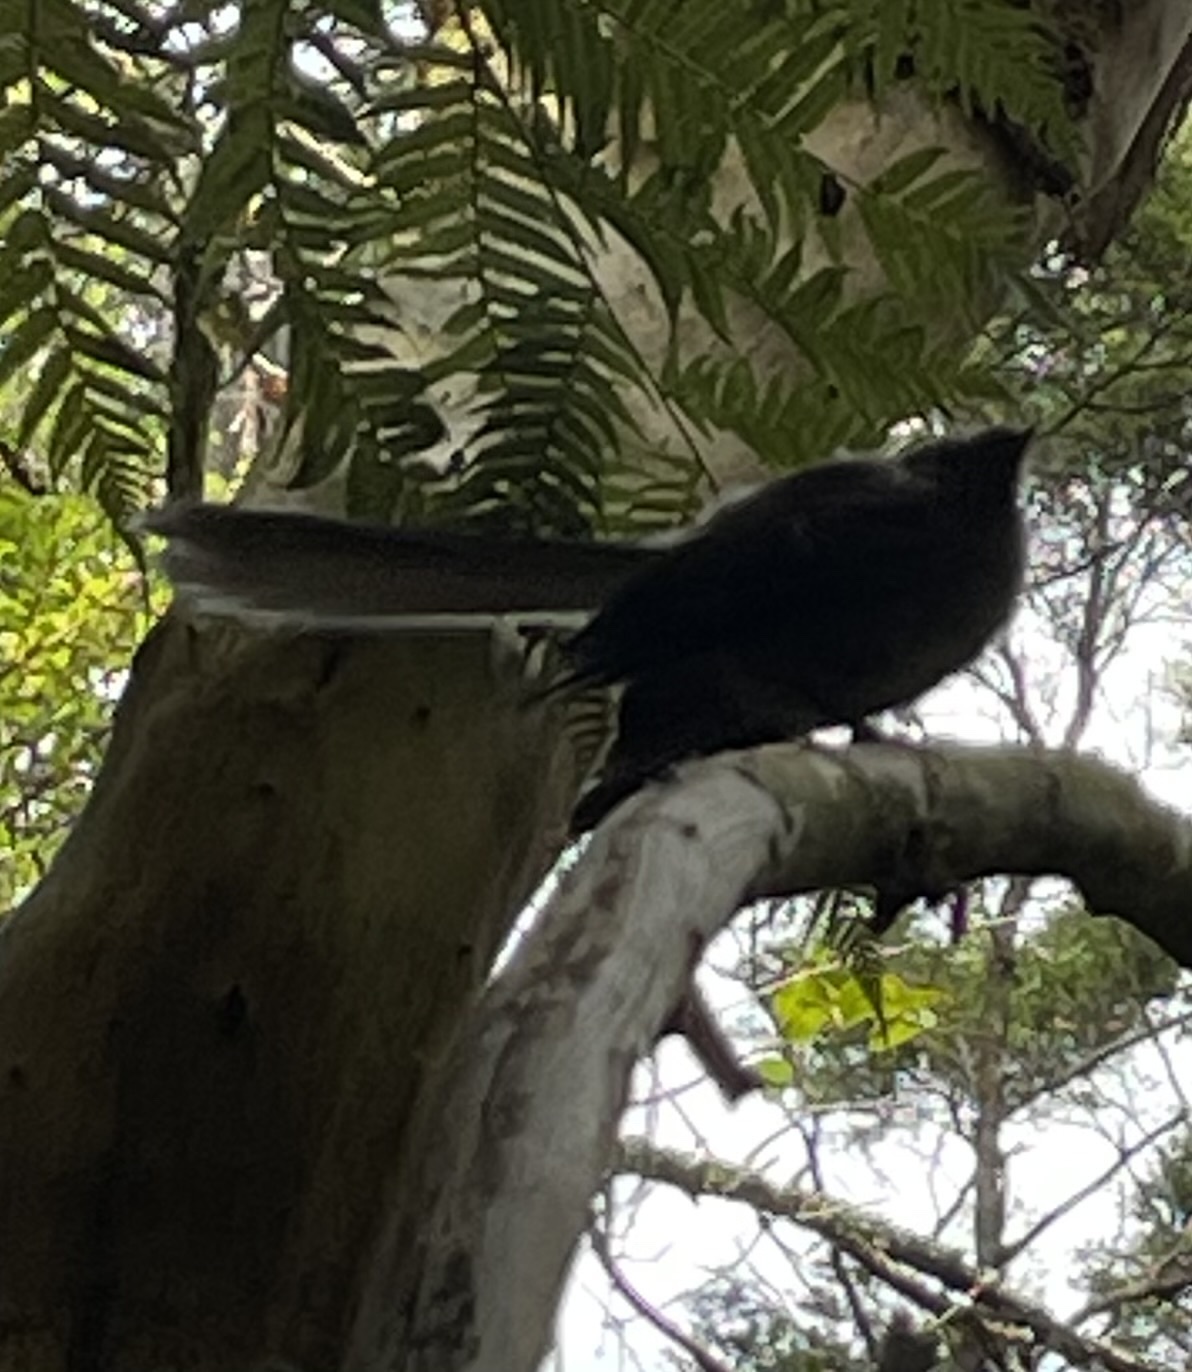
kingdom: Animalia
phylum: Chordata
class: Aves
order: Passeriformes
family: Rhipiduridae
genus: Rhipidura
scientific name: Rhipidura fuliginosa
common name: New zealand fantail
